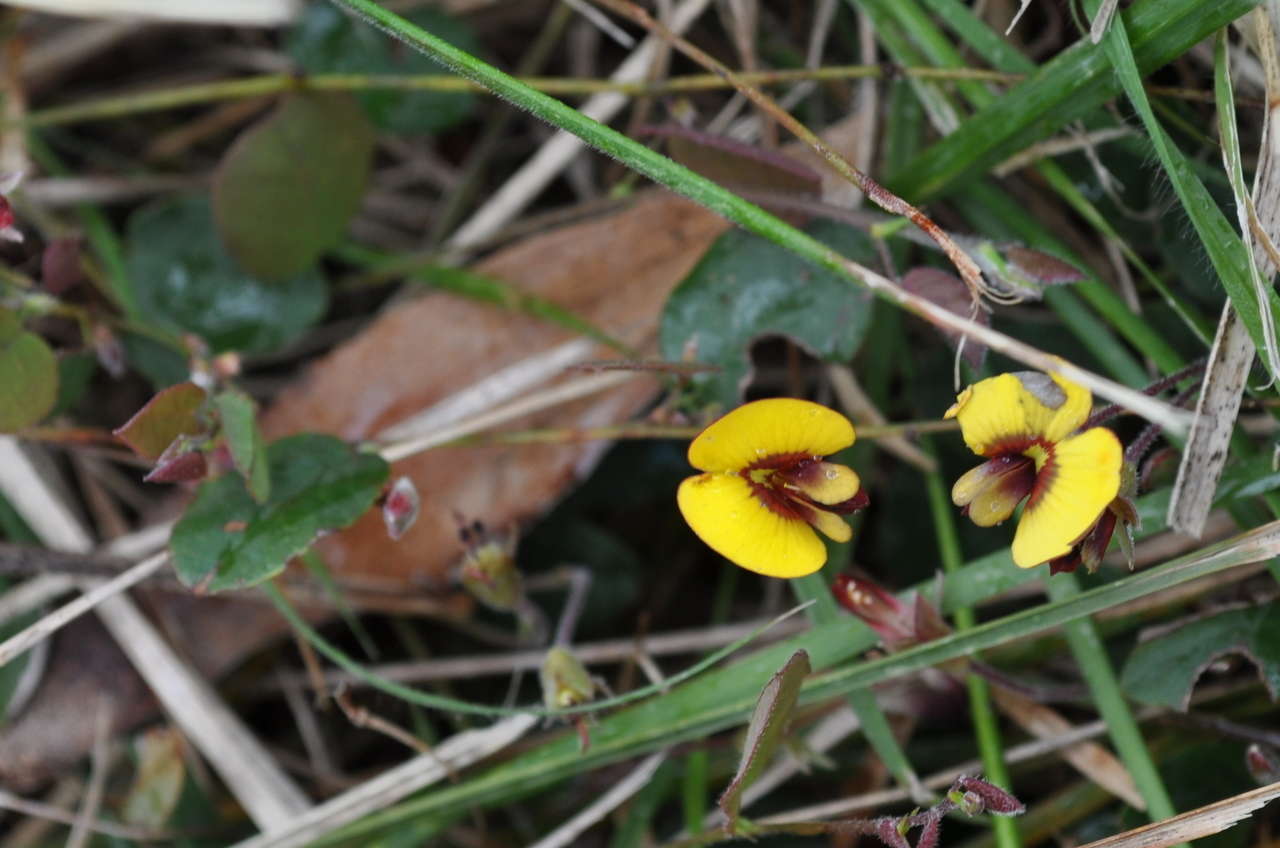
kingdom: Plantae
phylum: Tracheophyta
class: Magnoliopsida
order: Fabales
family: Fabaceae
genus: Bossiaea
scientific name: Bossiaea prostrata
